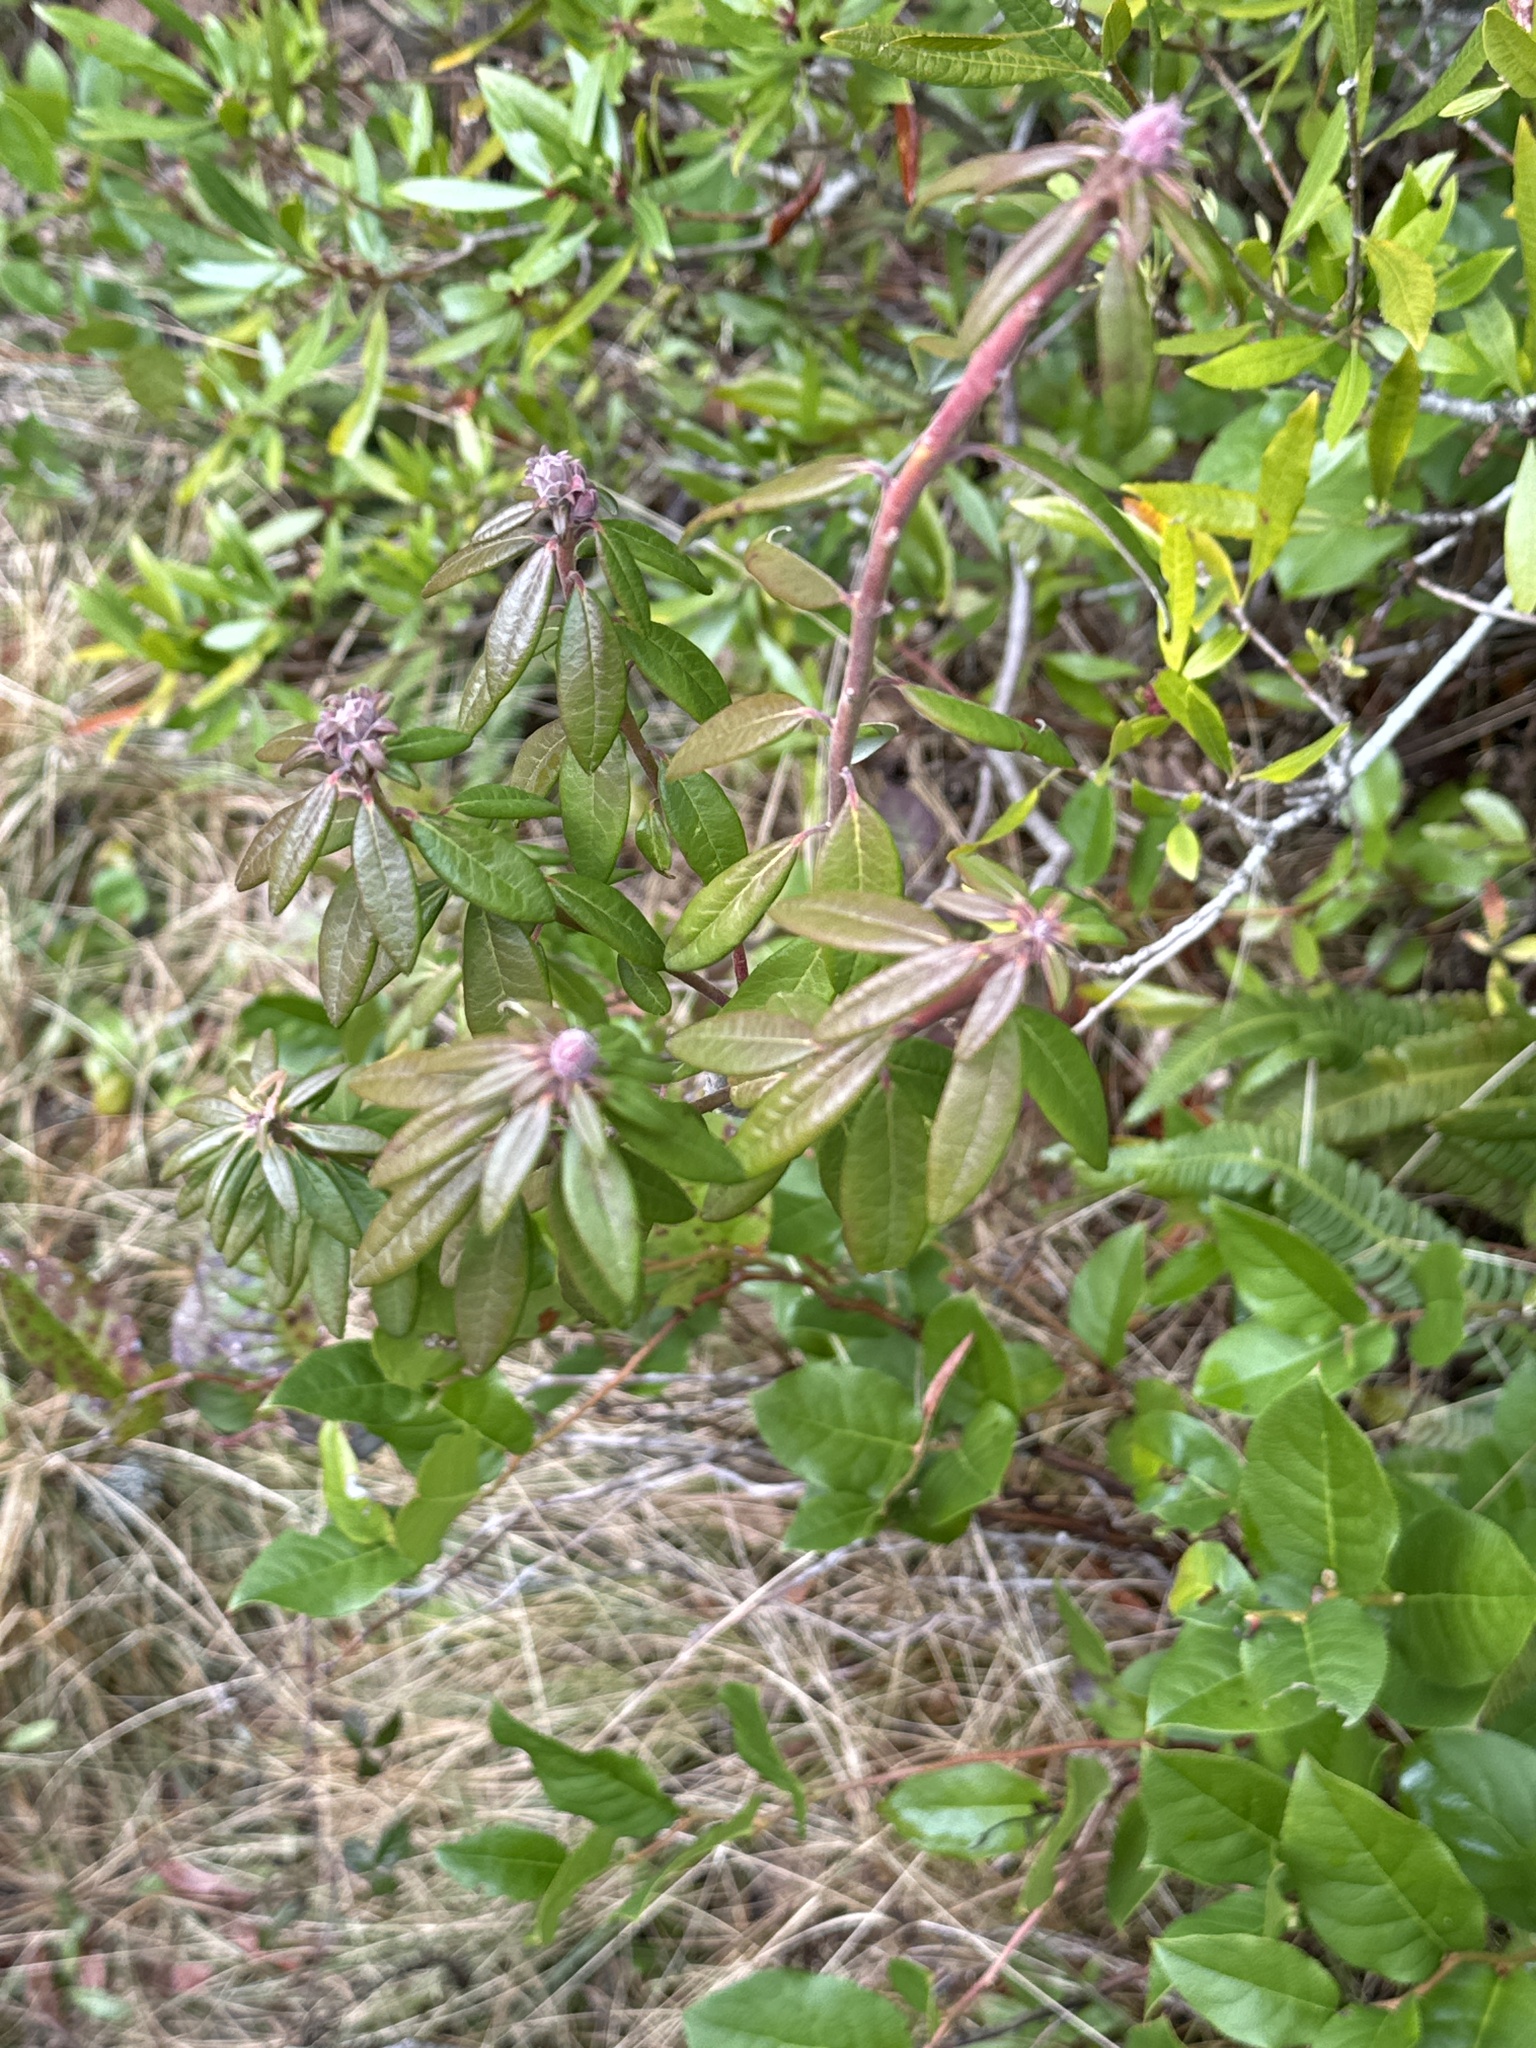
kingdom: Plantae
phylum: Tracheophyta
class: Magnoliopsida
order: Ericales
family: Ericaceae
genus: Rhododendron
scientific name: Rhododendron columbianum
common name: Western labrador tea
